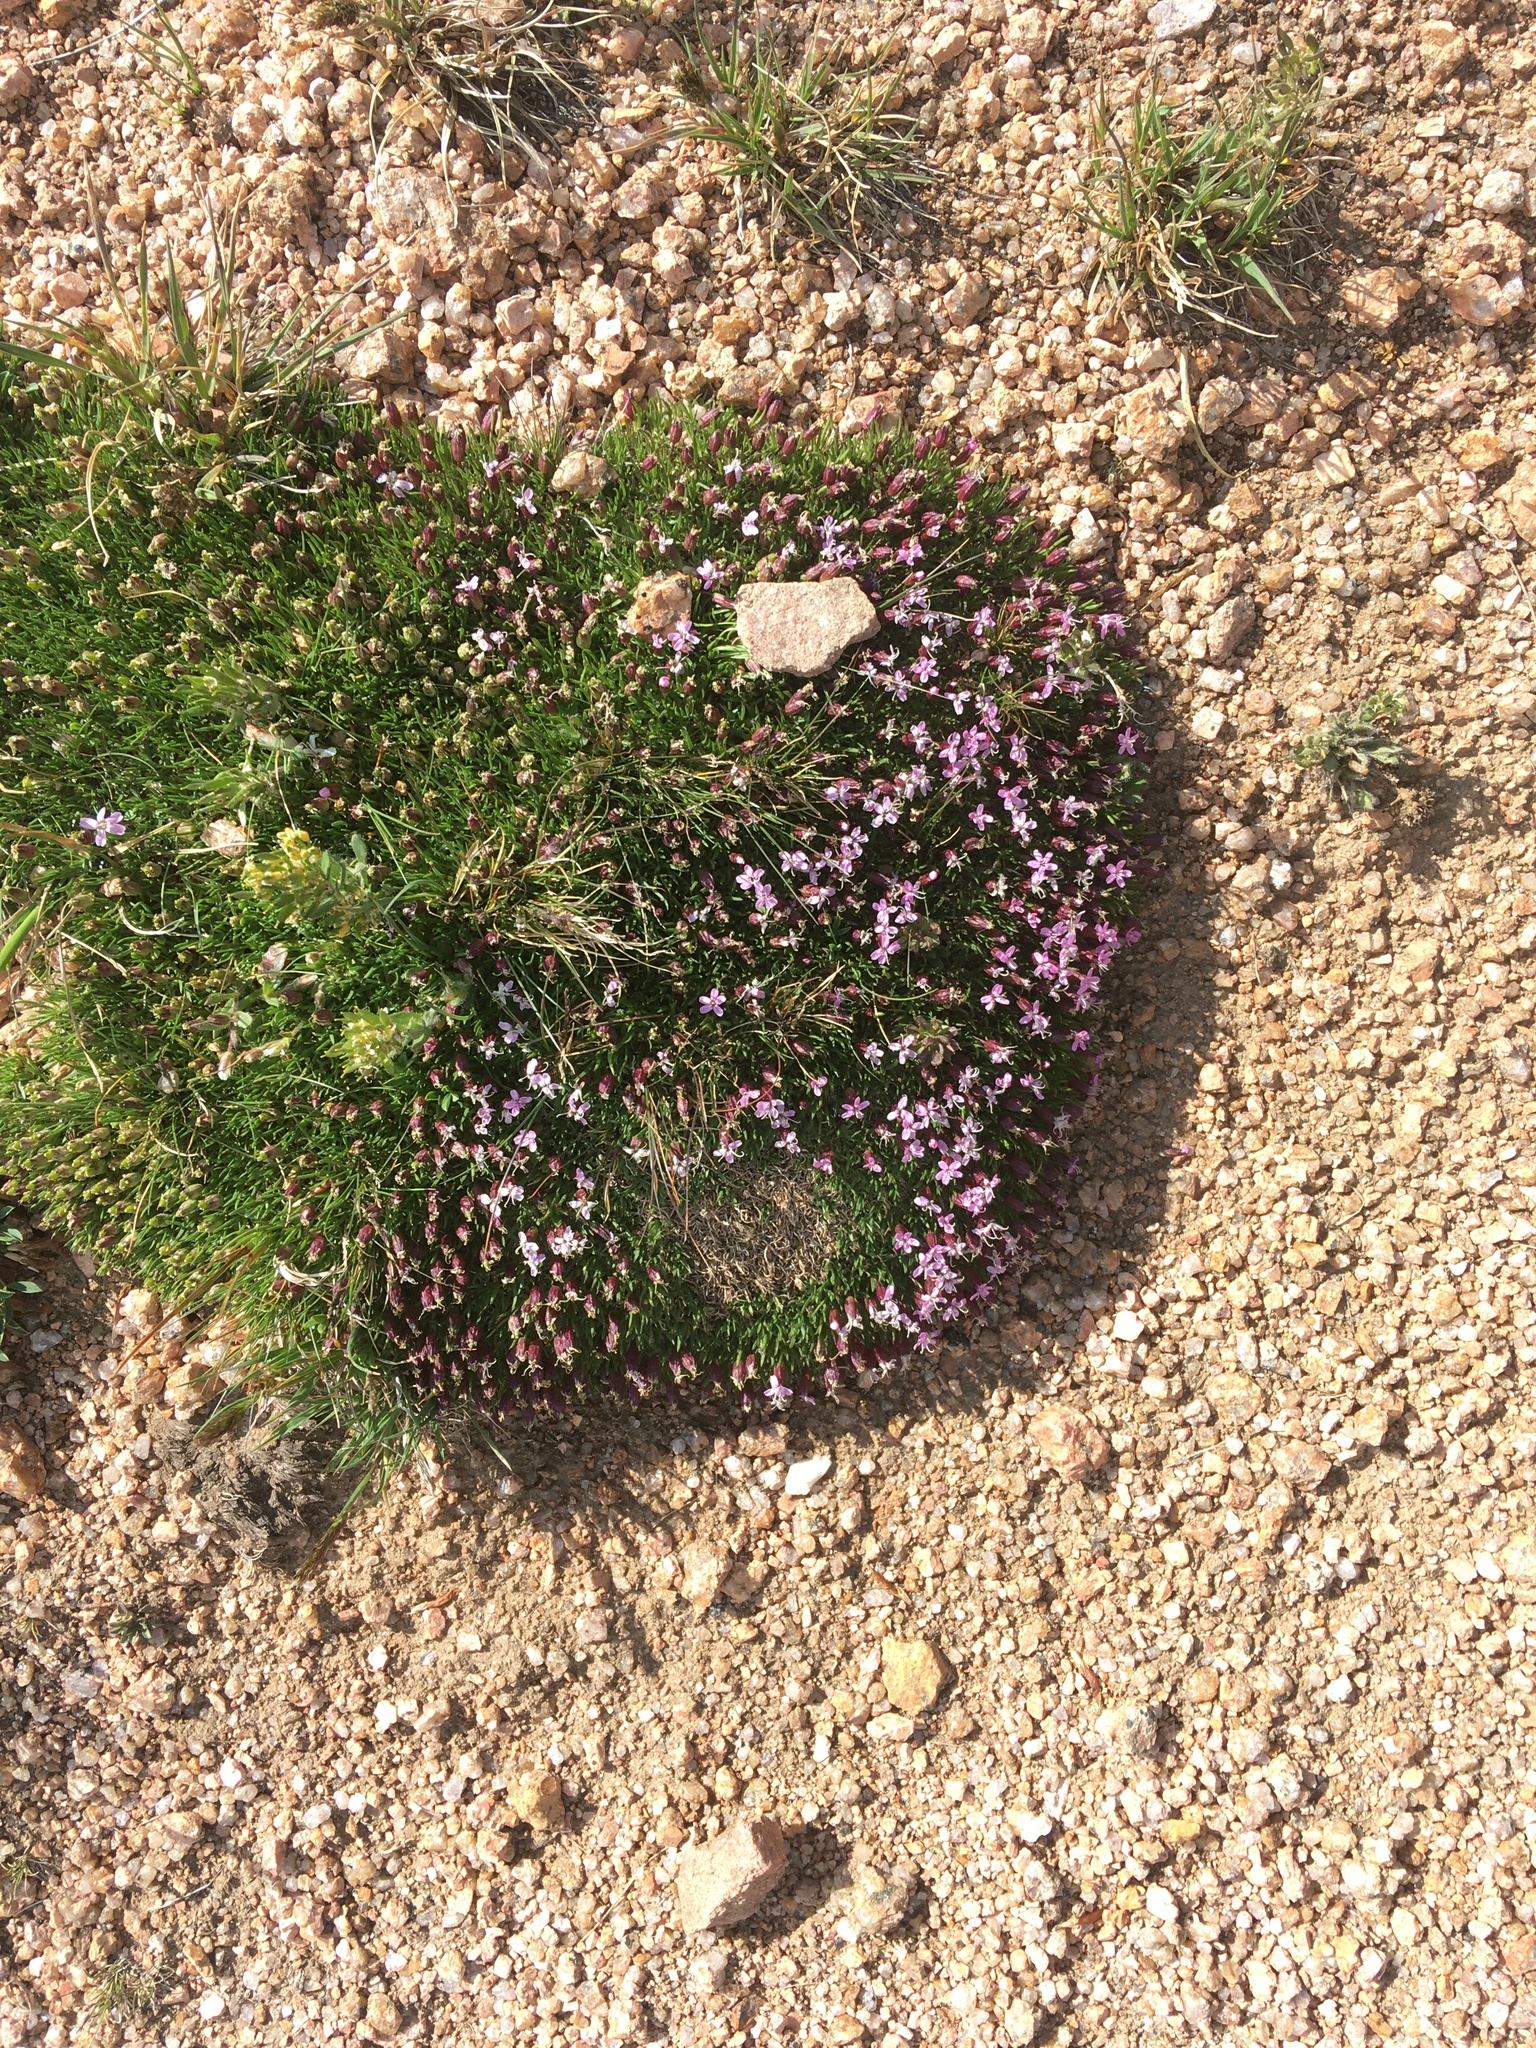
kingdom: Plantae
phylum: Tracheophyta
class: Magnoliopsida
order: Caryophyllales
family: Caryophyllaceae
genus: Silene
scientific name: Silene acaulis
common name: Moss campion
